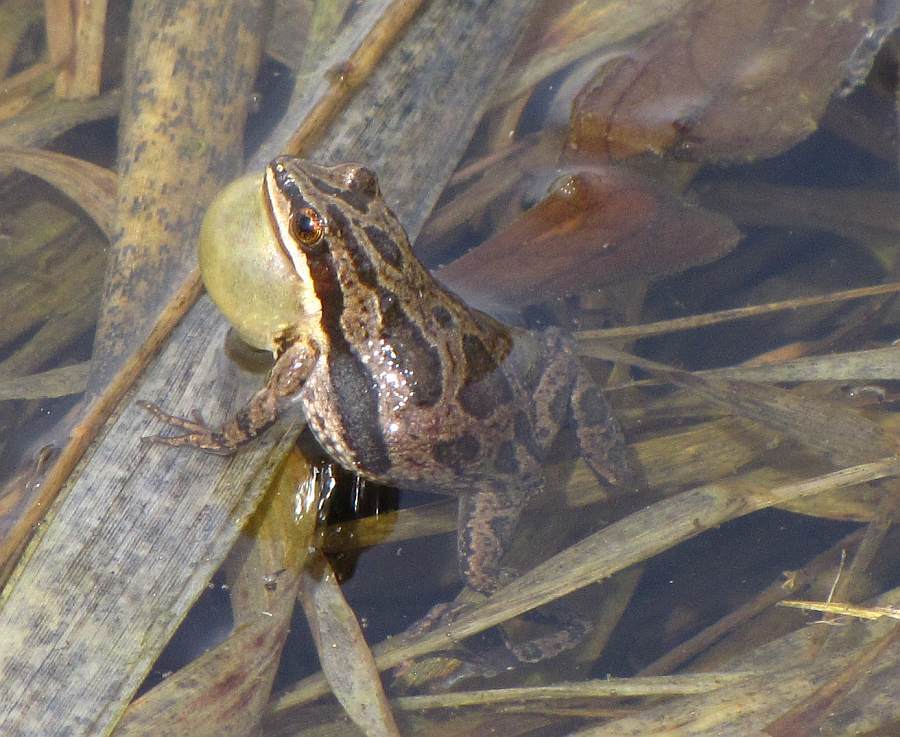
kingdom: Animalia
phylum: Chordata
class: Amphibia
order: Anura
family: Hylidae
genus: Pseudacris
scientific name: Pseudacris maculata
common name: Boreal chorus frog
